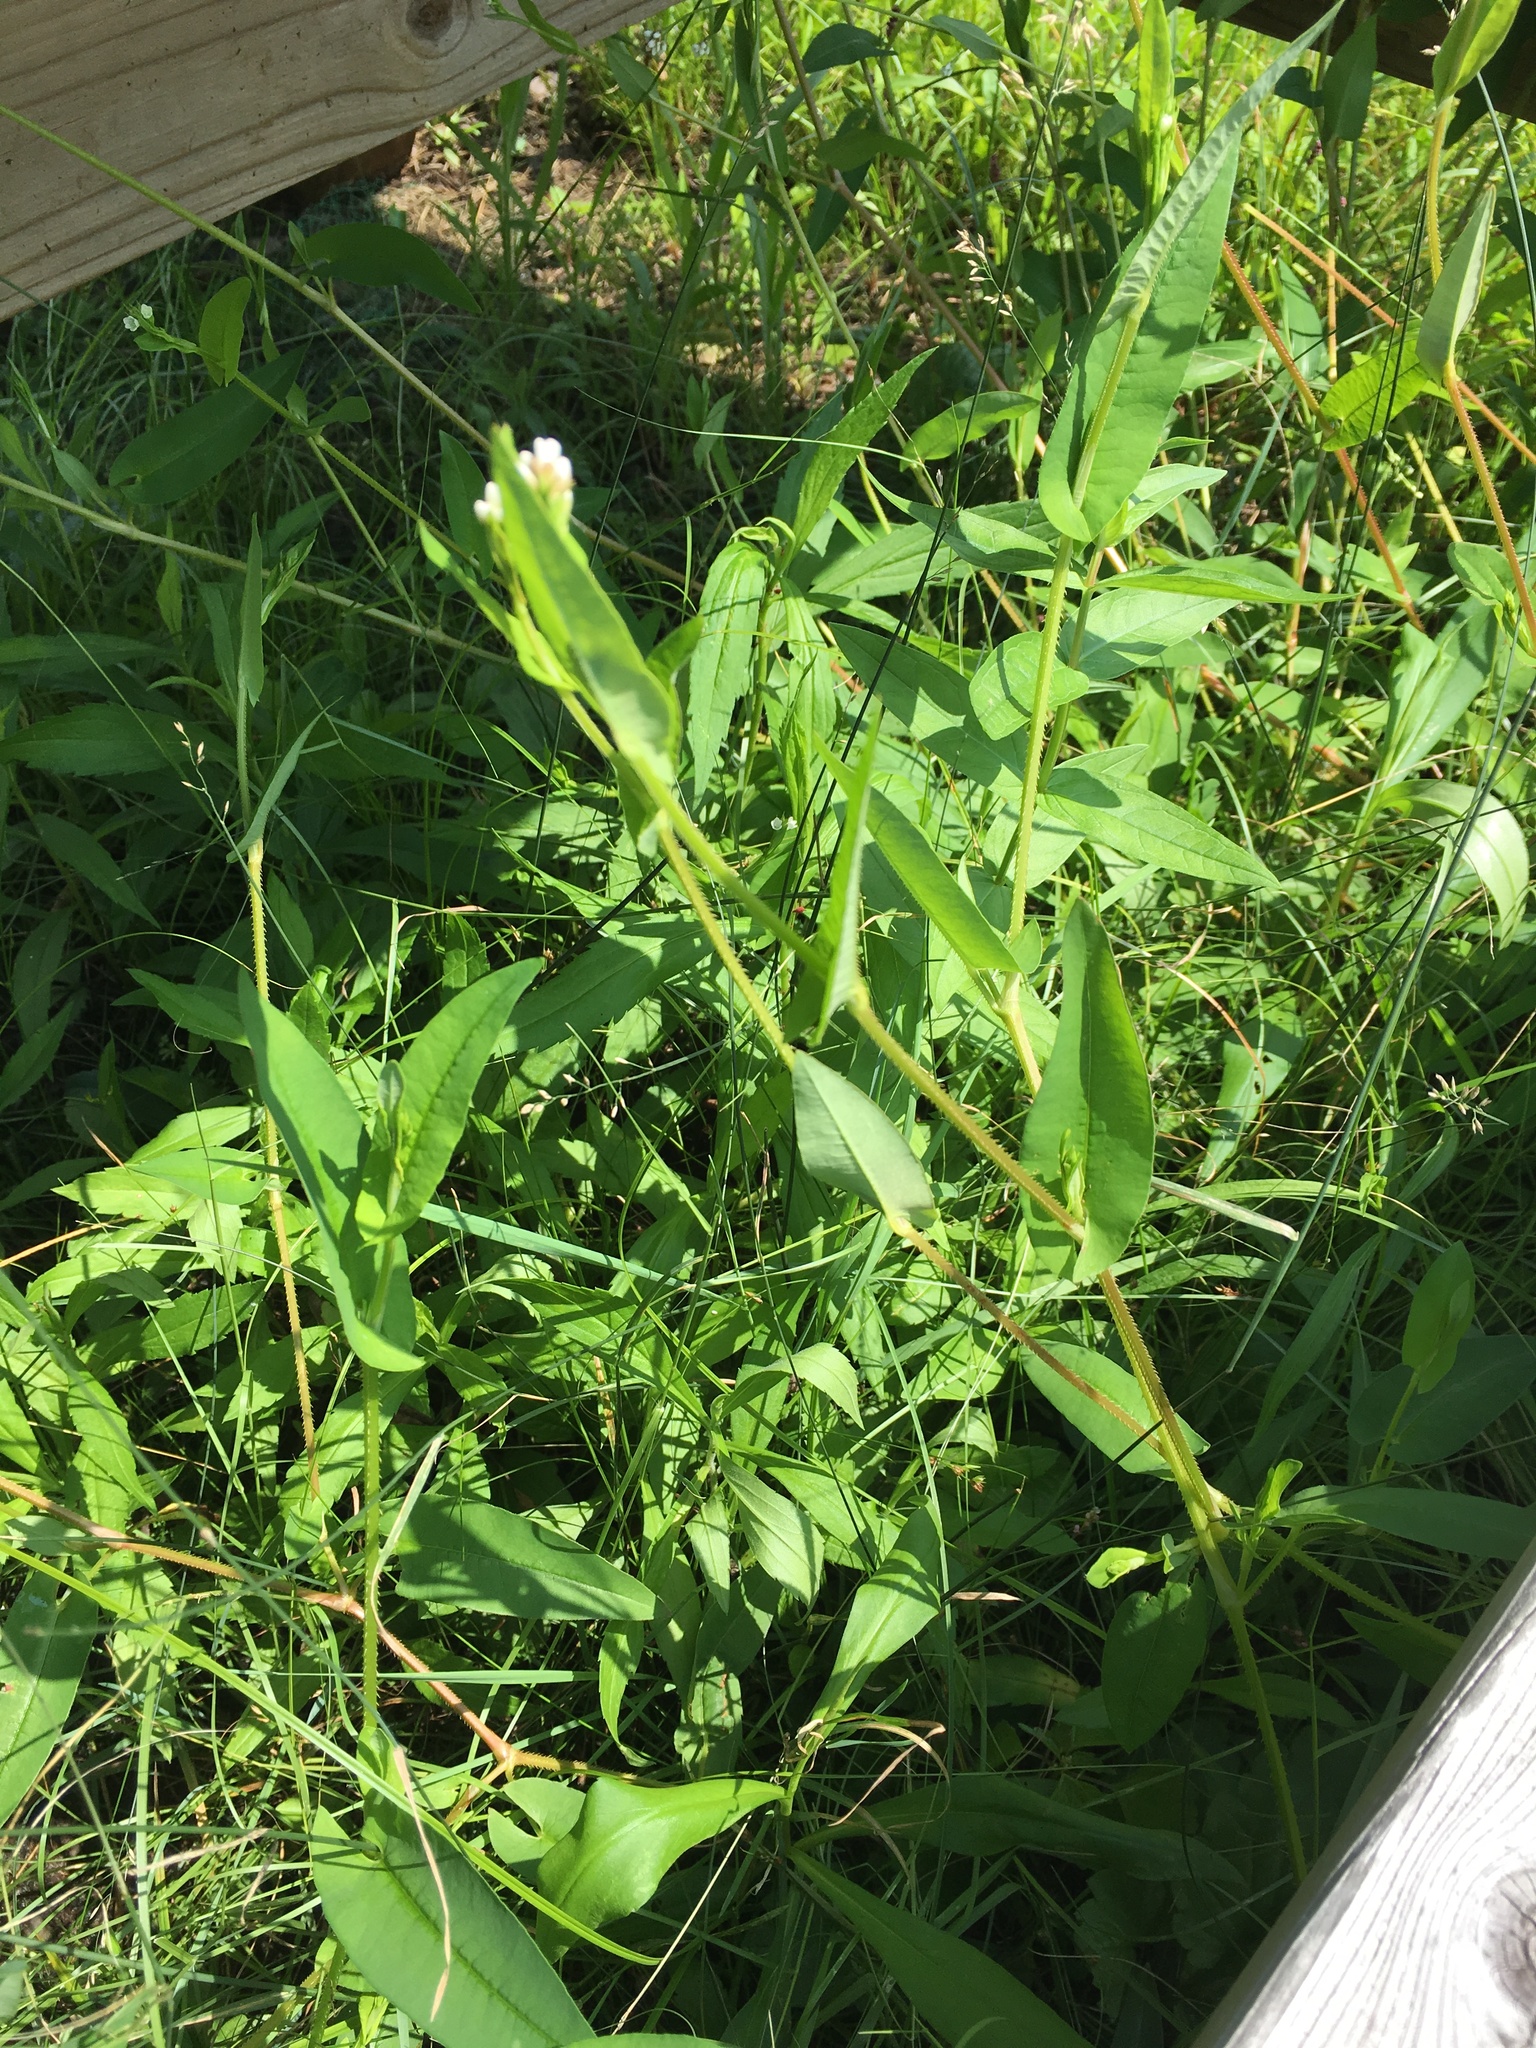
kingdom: Plantae
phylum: Tracheophyta
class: Magnoliopsida
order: Caryophyllales
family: Polygonaceae
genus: Persicaria
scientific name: Persicaria sagittata
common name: American tearthumb
